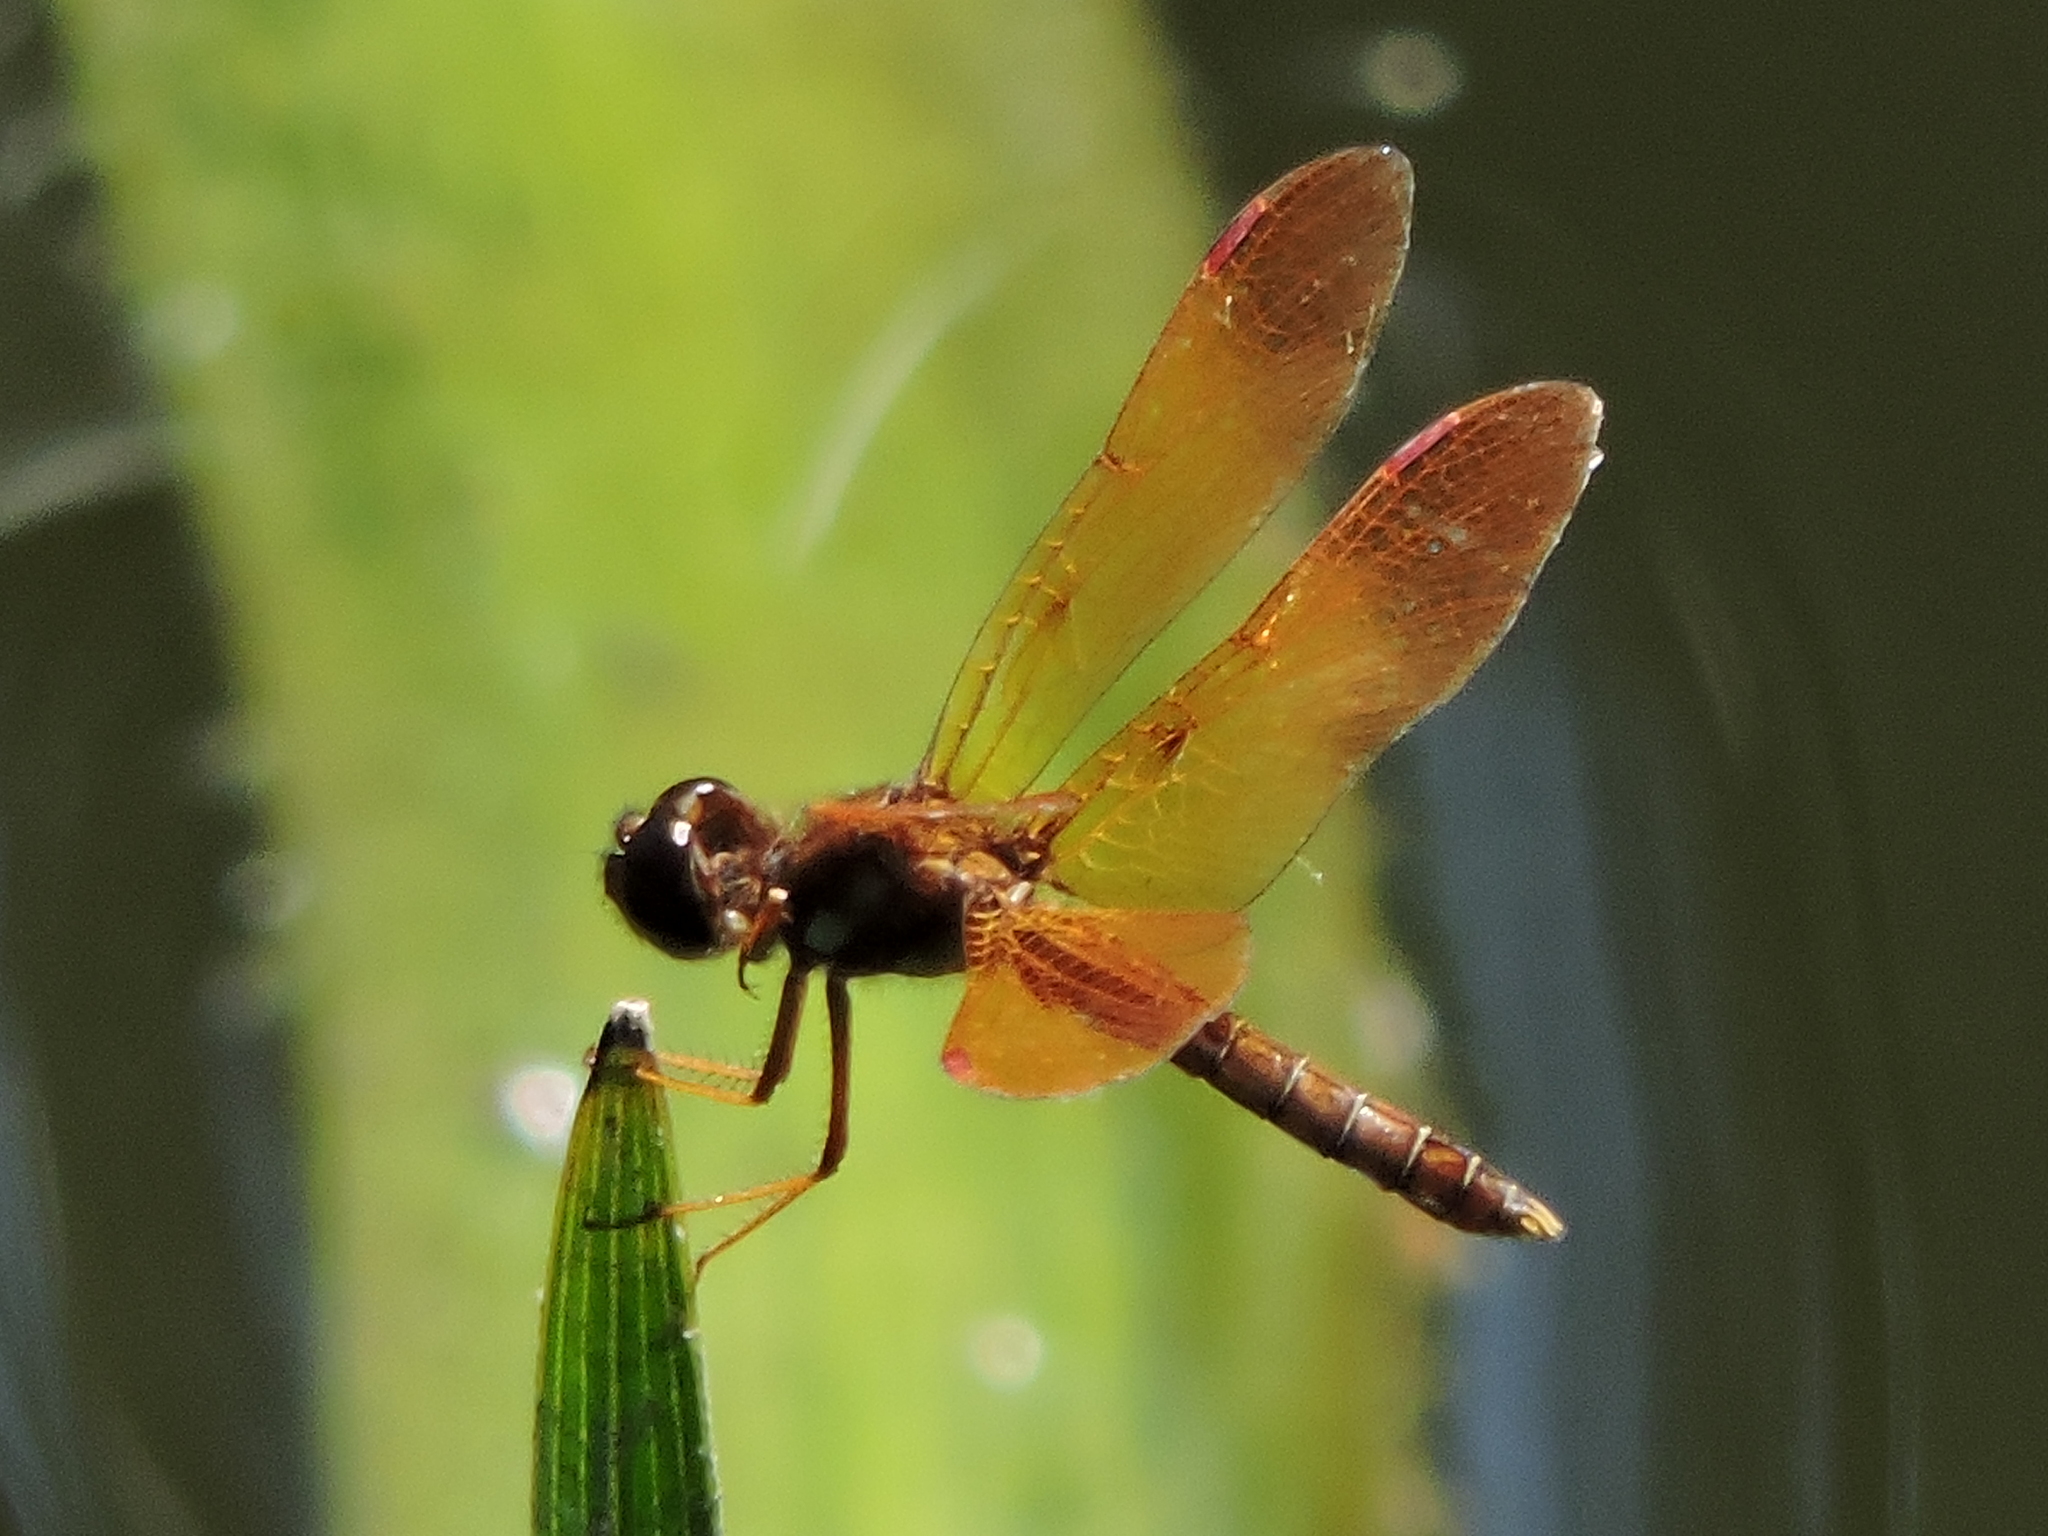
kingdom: Animalia
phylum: Arthropoda
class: Insecta
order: Odonata
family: Libellulidae
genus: Perithemis
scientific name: Perithemis tenera
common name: Eastern amberwing
